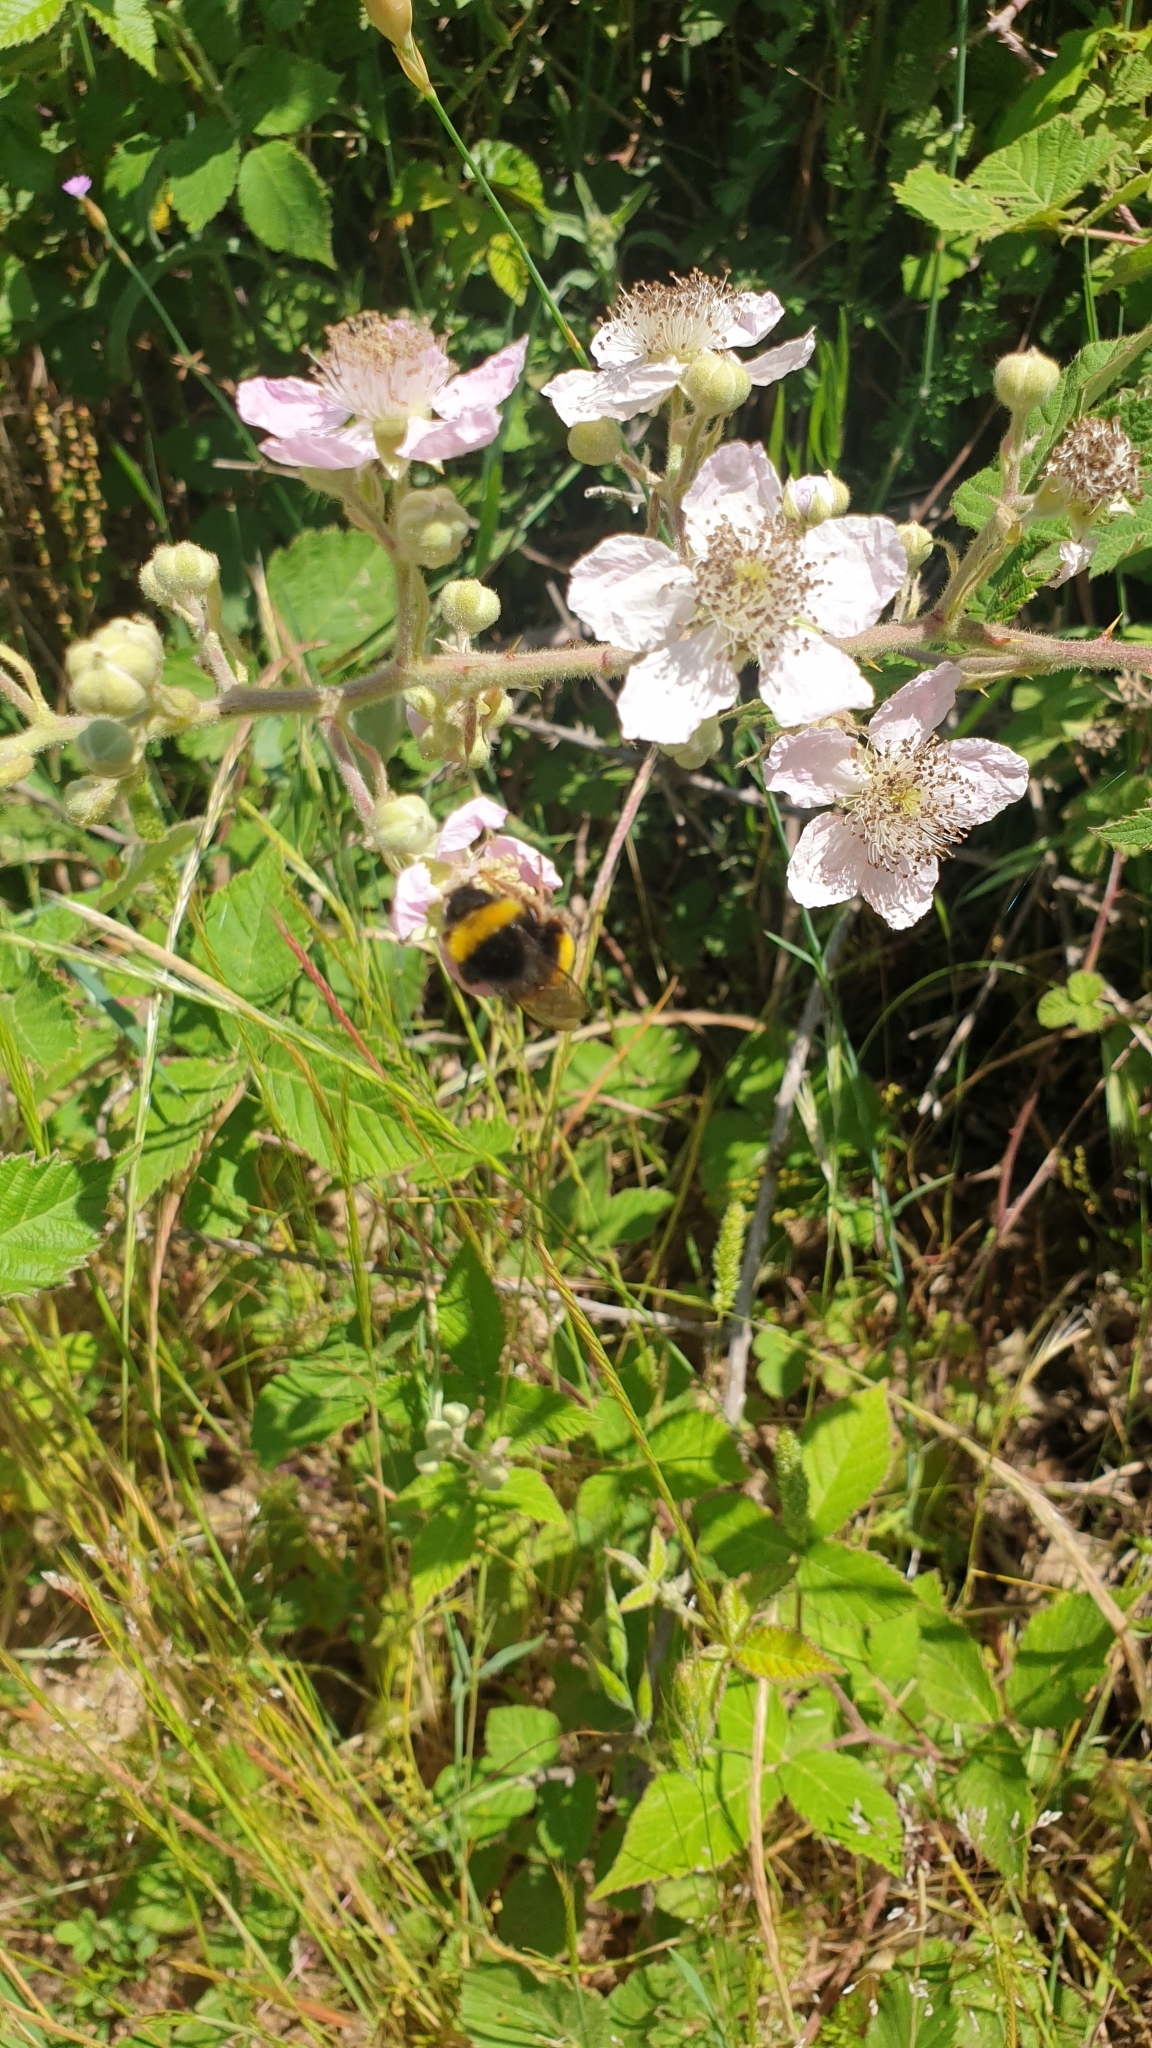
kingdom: Animalia
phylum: Arthropoda
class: Insecta
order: Hymenoptera
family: Apidae
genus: Bombus
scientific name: Bombus terrestris
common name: Buff-tailed bumblebee
